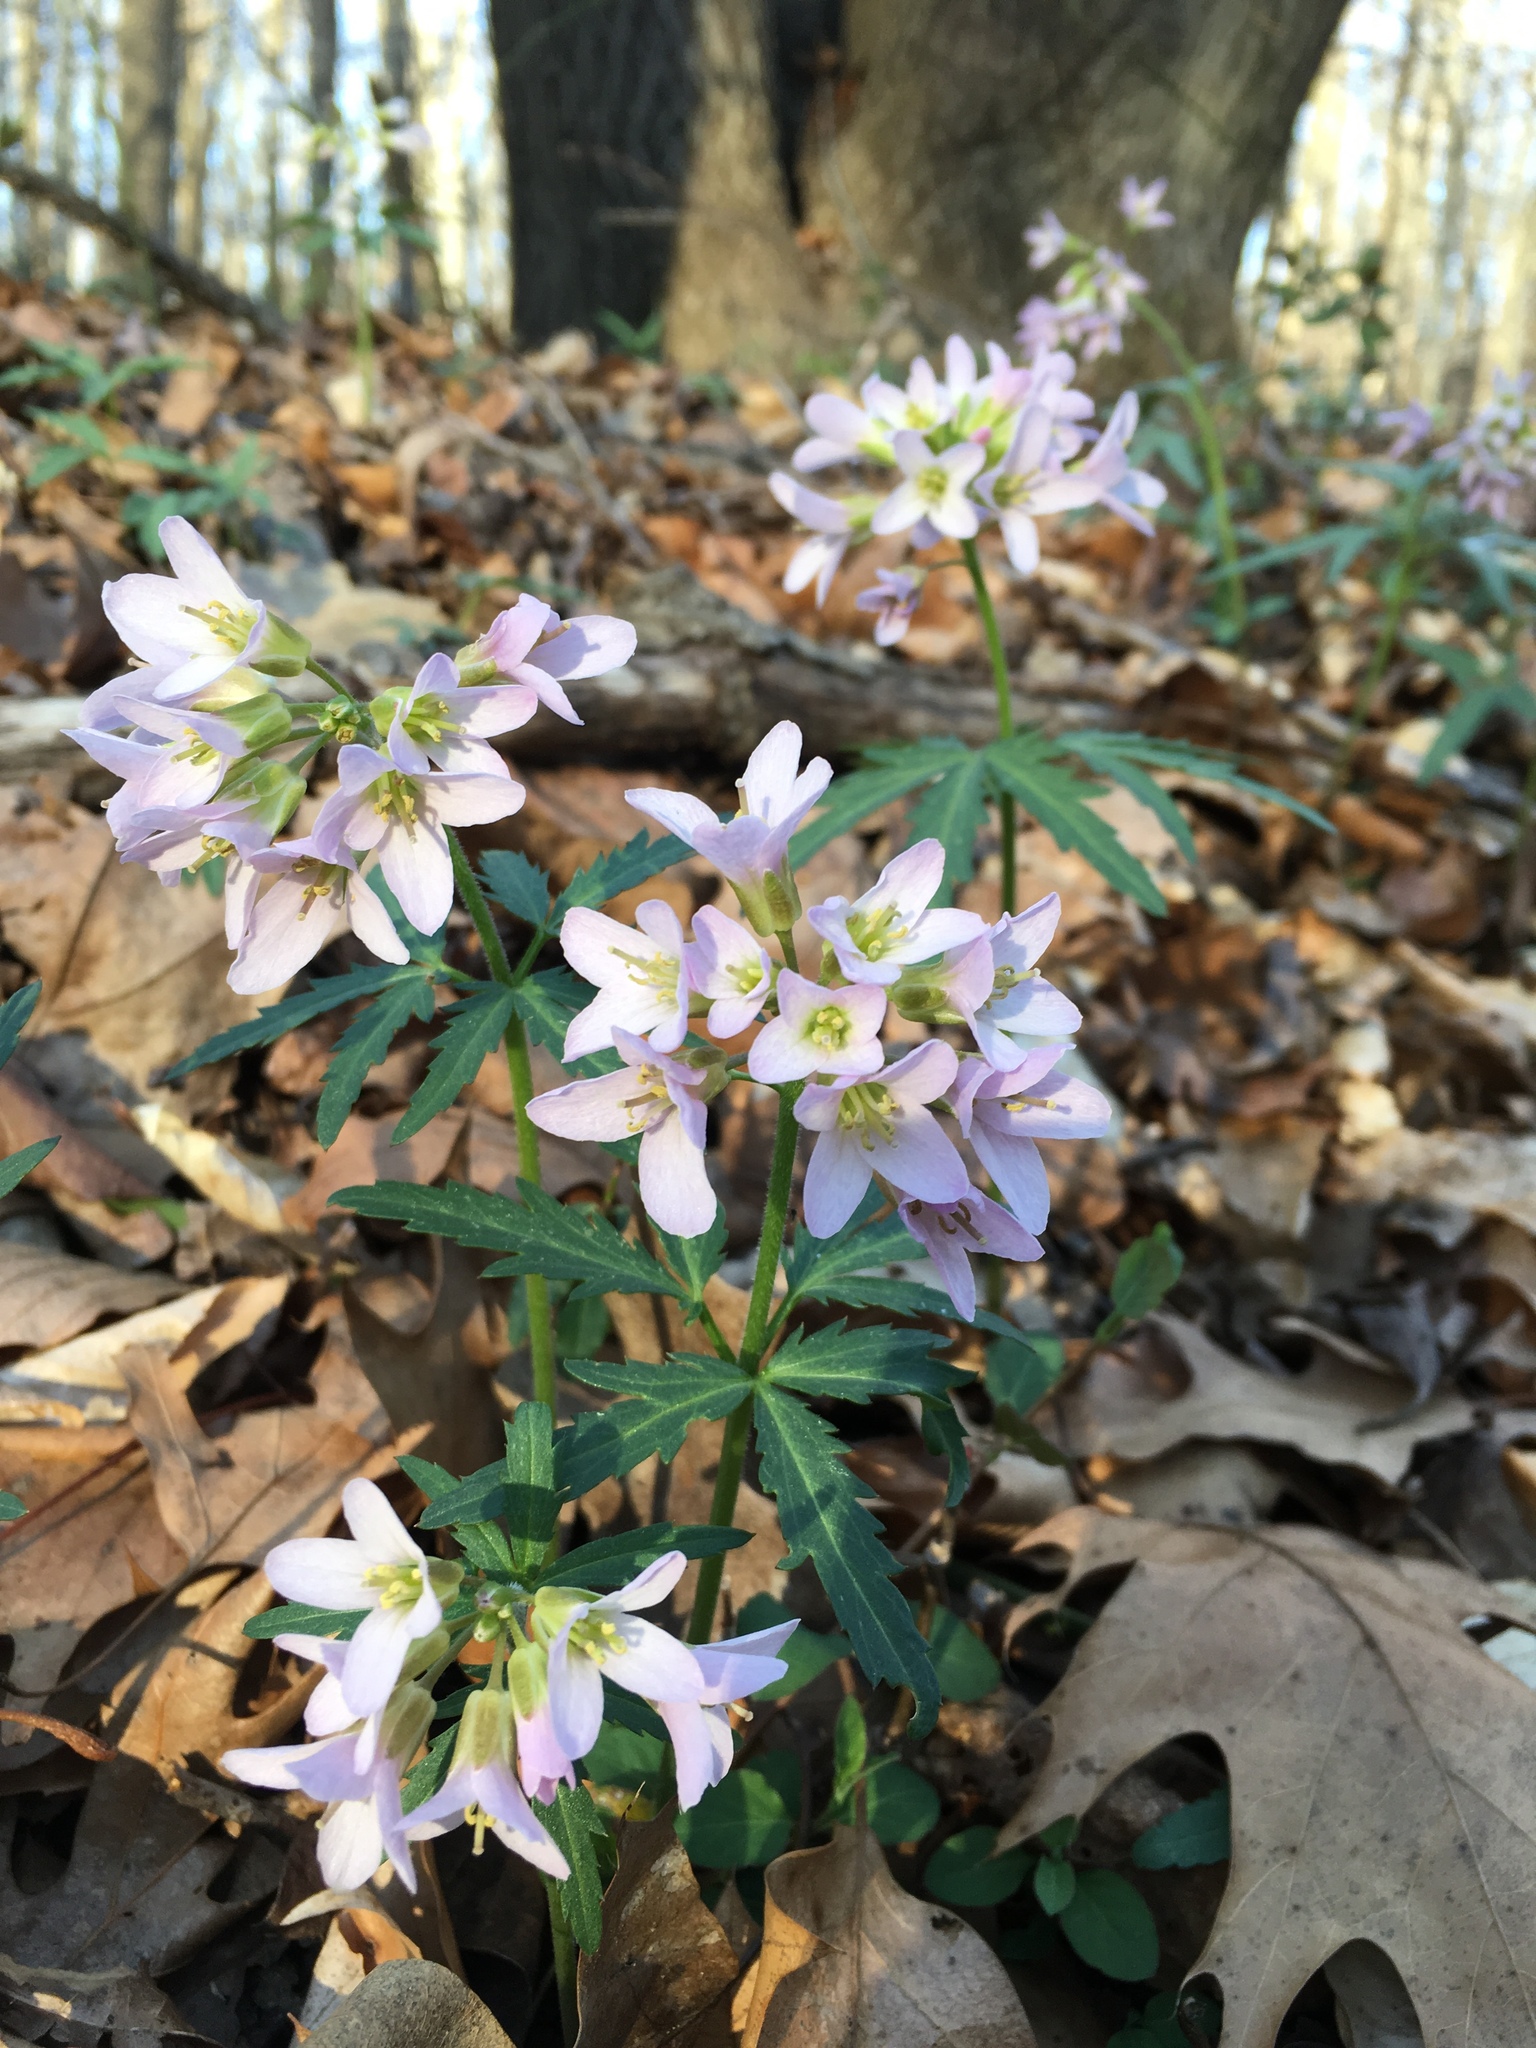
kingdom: Plantae
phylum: Tracheophyta
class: Magnoliopsida
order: Brassicales
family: Brassicaceae
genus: Cardamine
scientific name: Cardamine concatenata
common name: Cut-leaf toothcup
